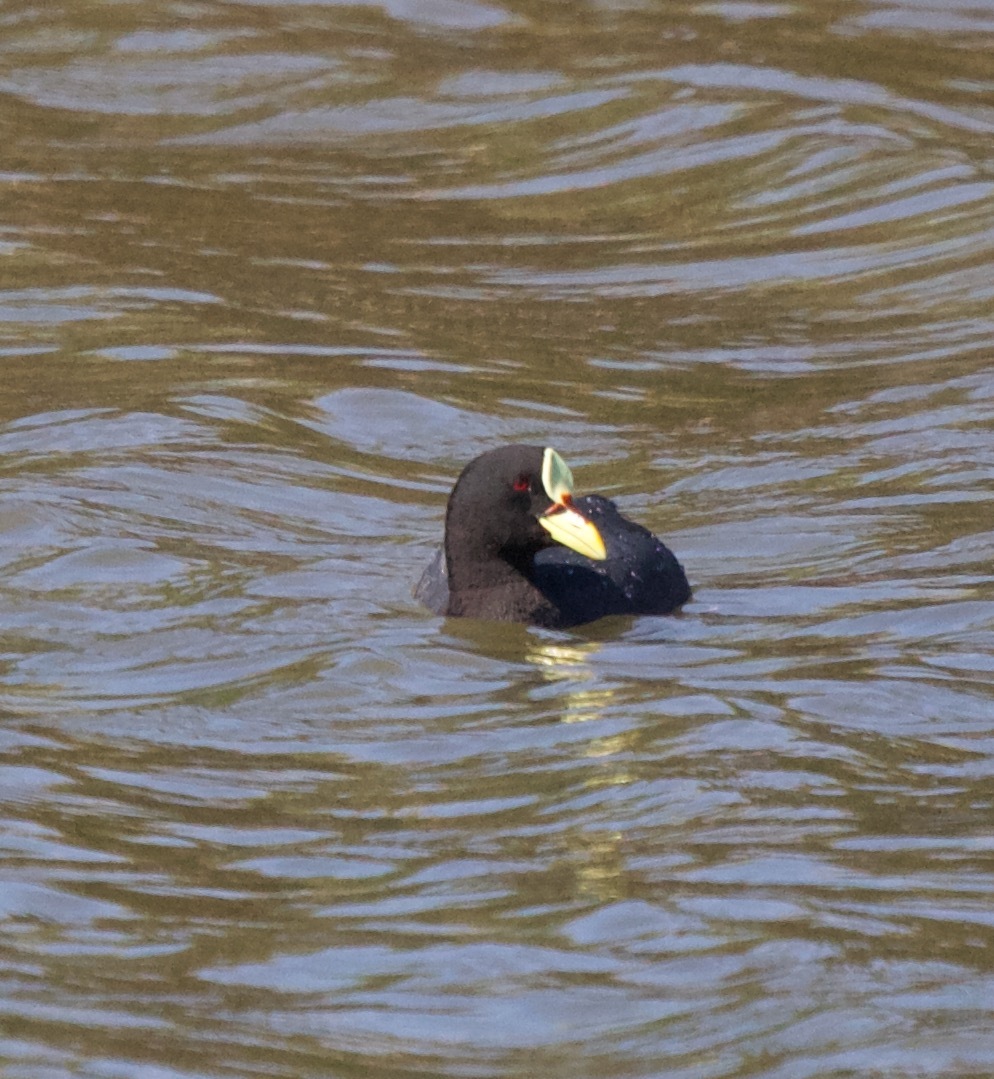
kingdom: Animalia
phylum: Chordata
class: Aves
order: Gruiformes
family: Rallidae
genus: Fulica
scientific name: Fulica armillata
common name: Red-gartered coot
